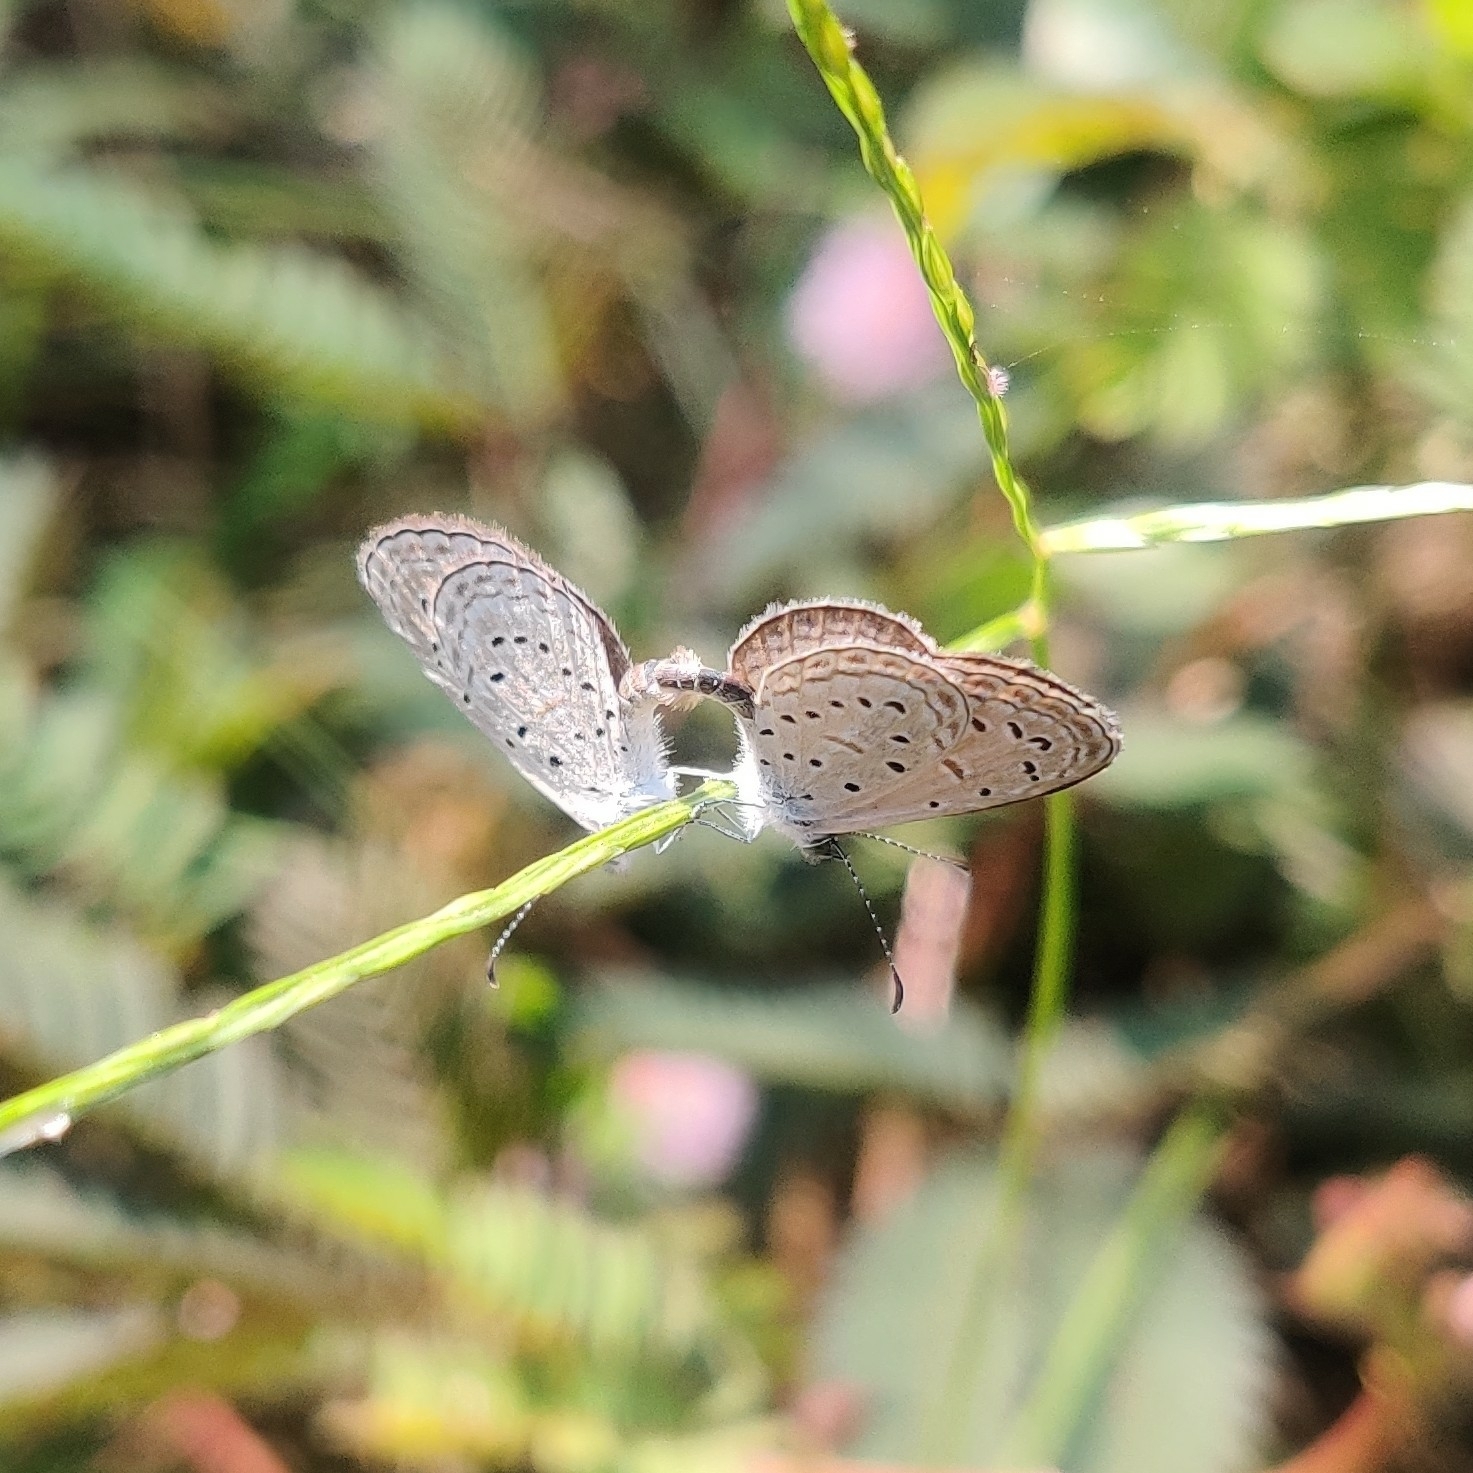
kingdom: Animalia
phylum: Arthropoda
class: Insecta
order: Lepidoptera
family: Lycaenidae
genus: Zizula
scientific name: Zizula hylax
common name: Gaika blue
